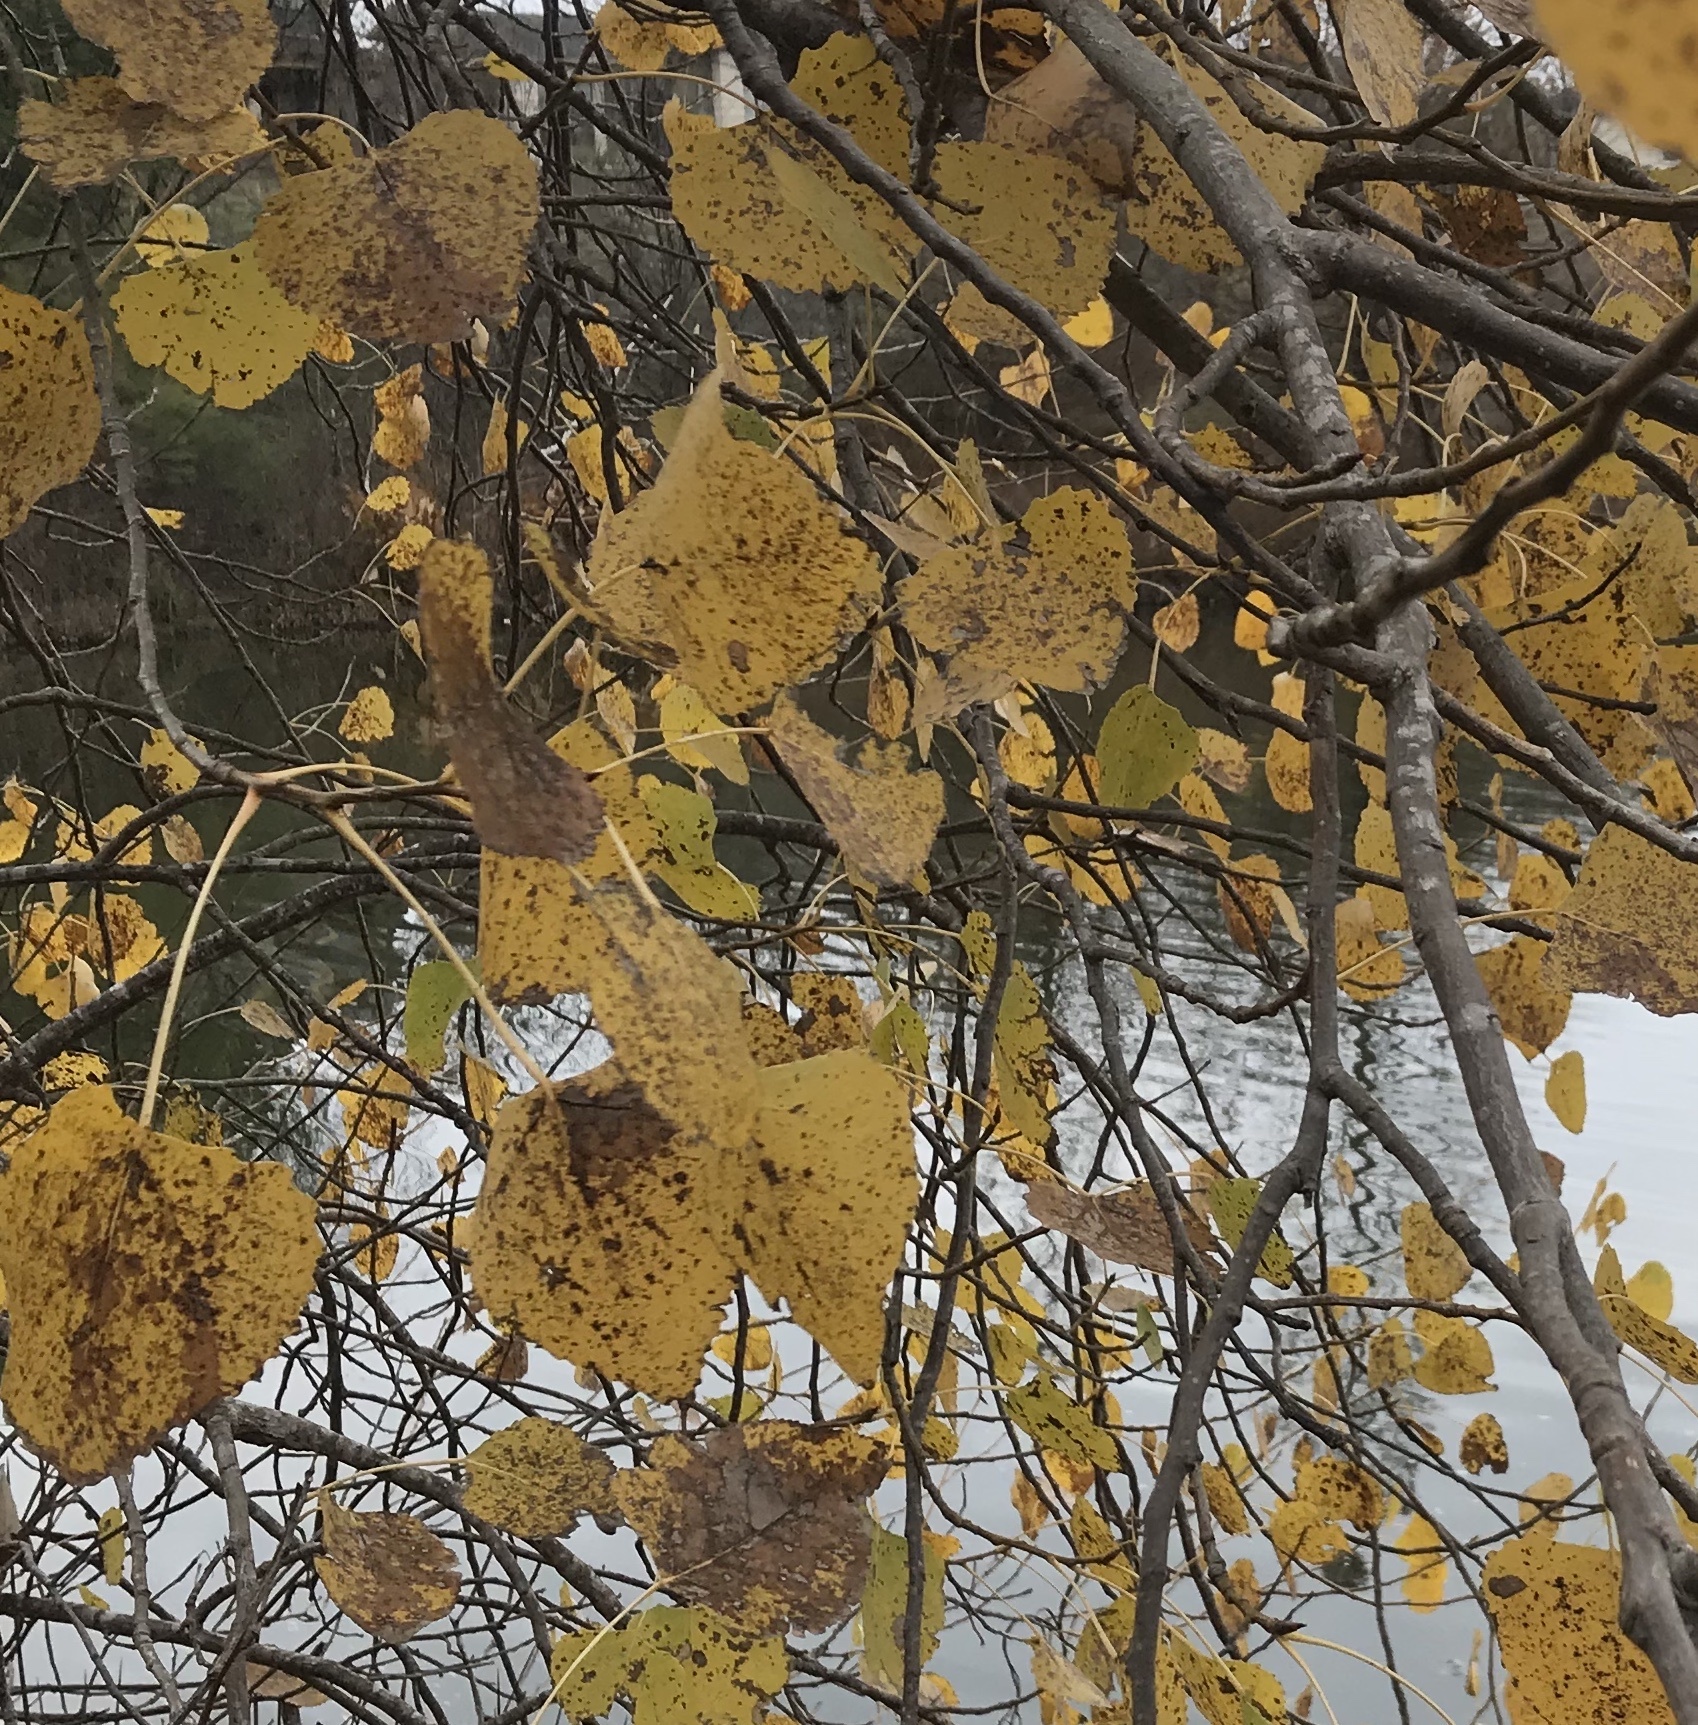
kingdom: Plantae
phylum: Tracheophyta
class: Magnoliopsida
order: Malpighiales
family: Salicaceae
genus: Populus
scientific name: Populus deltoides
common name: Eastern cottonwood
